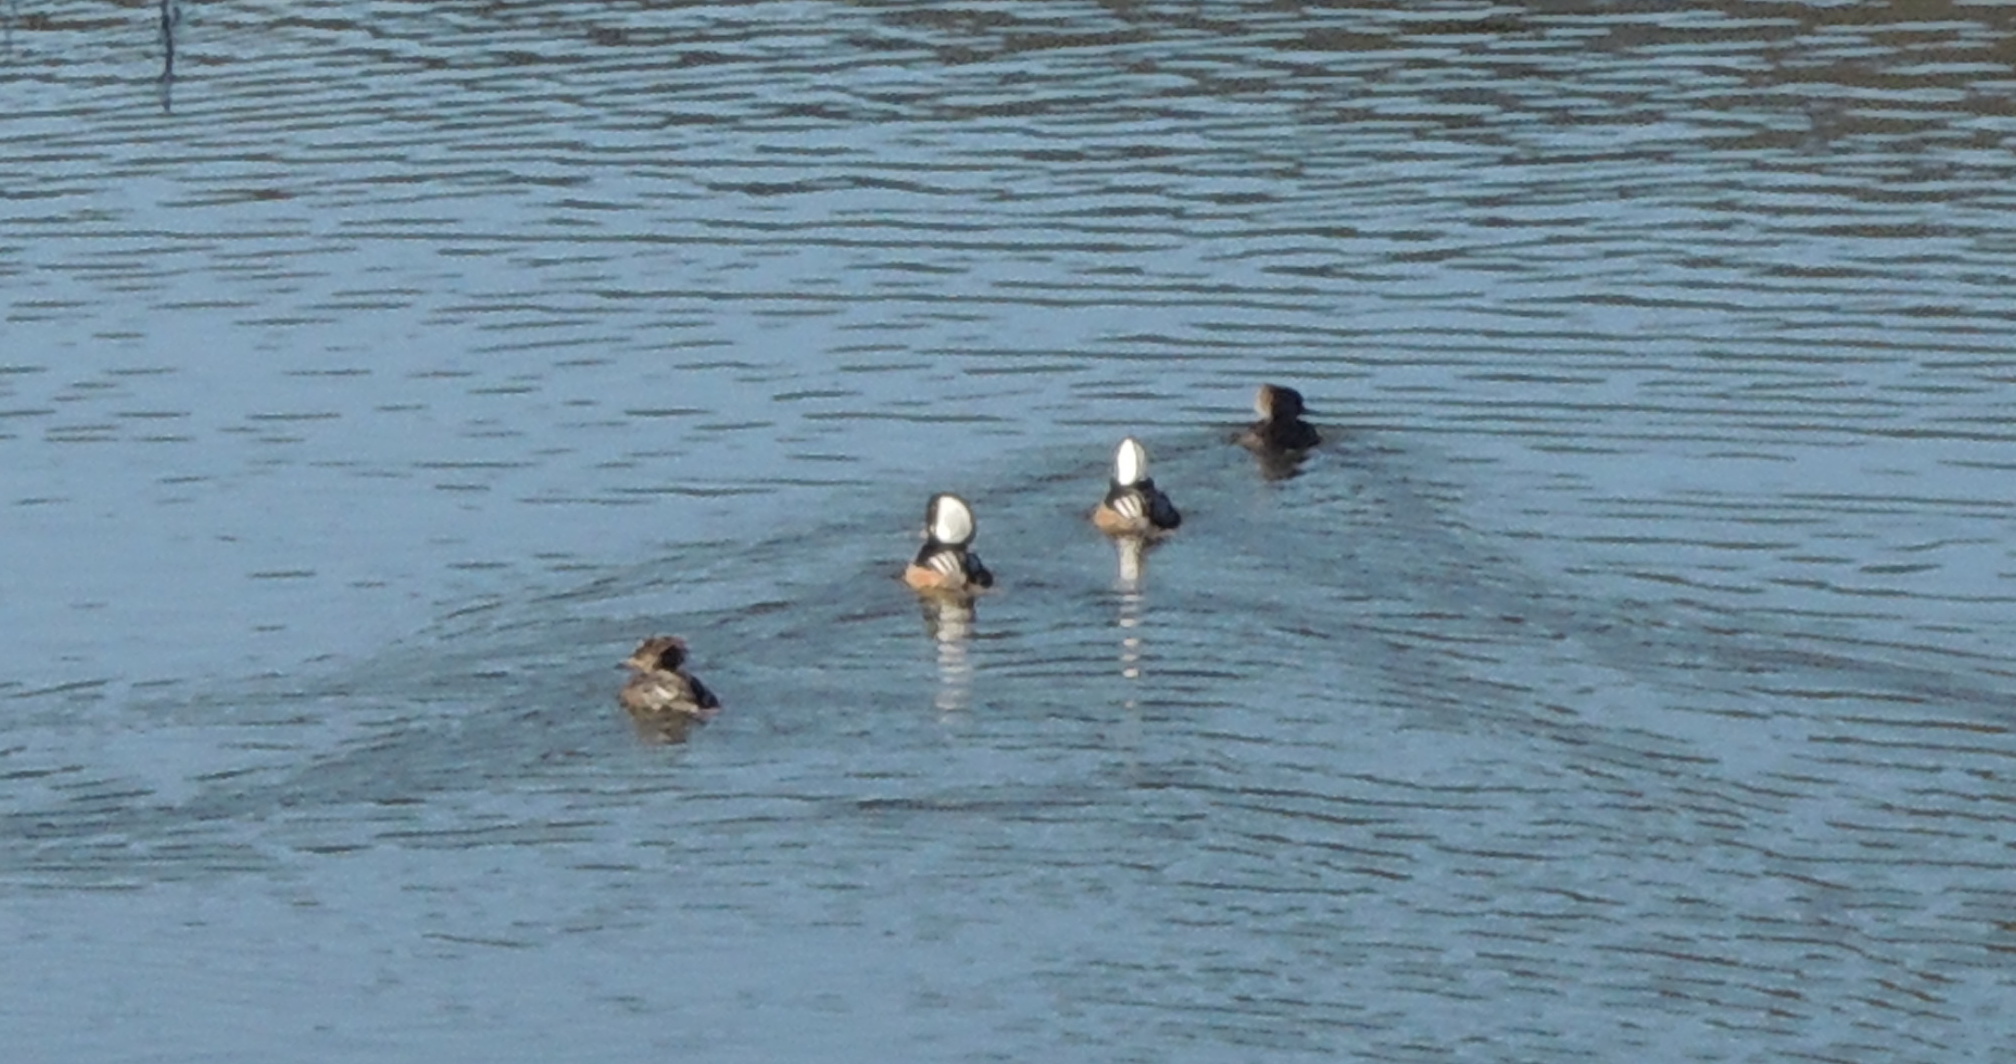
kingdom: Animalia
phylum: Chordata
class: Aves
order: Anseriformes
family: Anatidae
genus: Lophodytes
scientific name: Lophodytes cucullatus
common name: Hooded merganser
